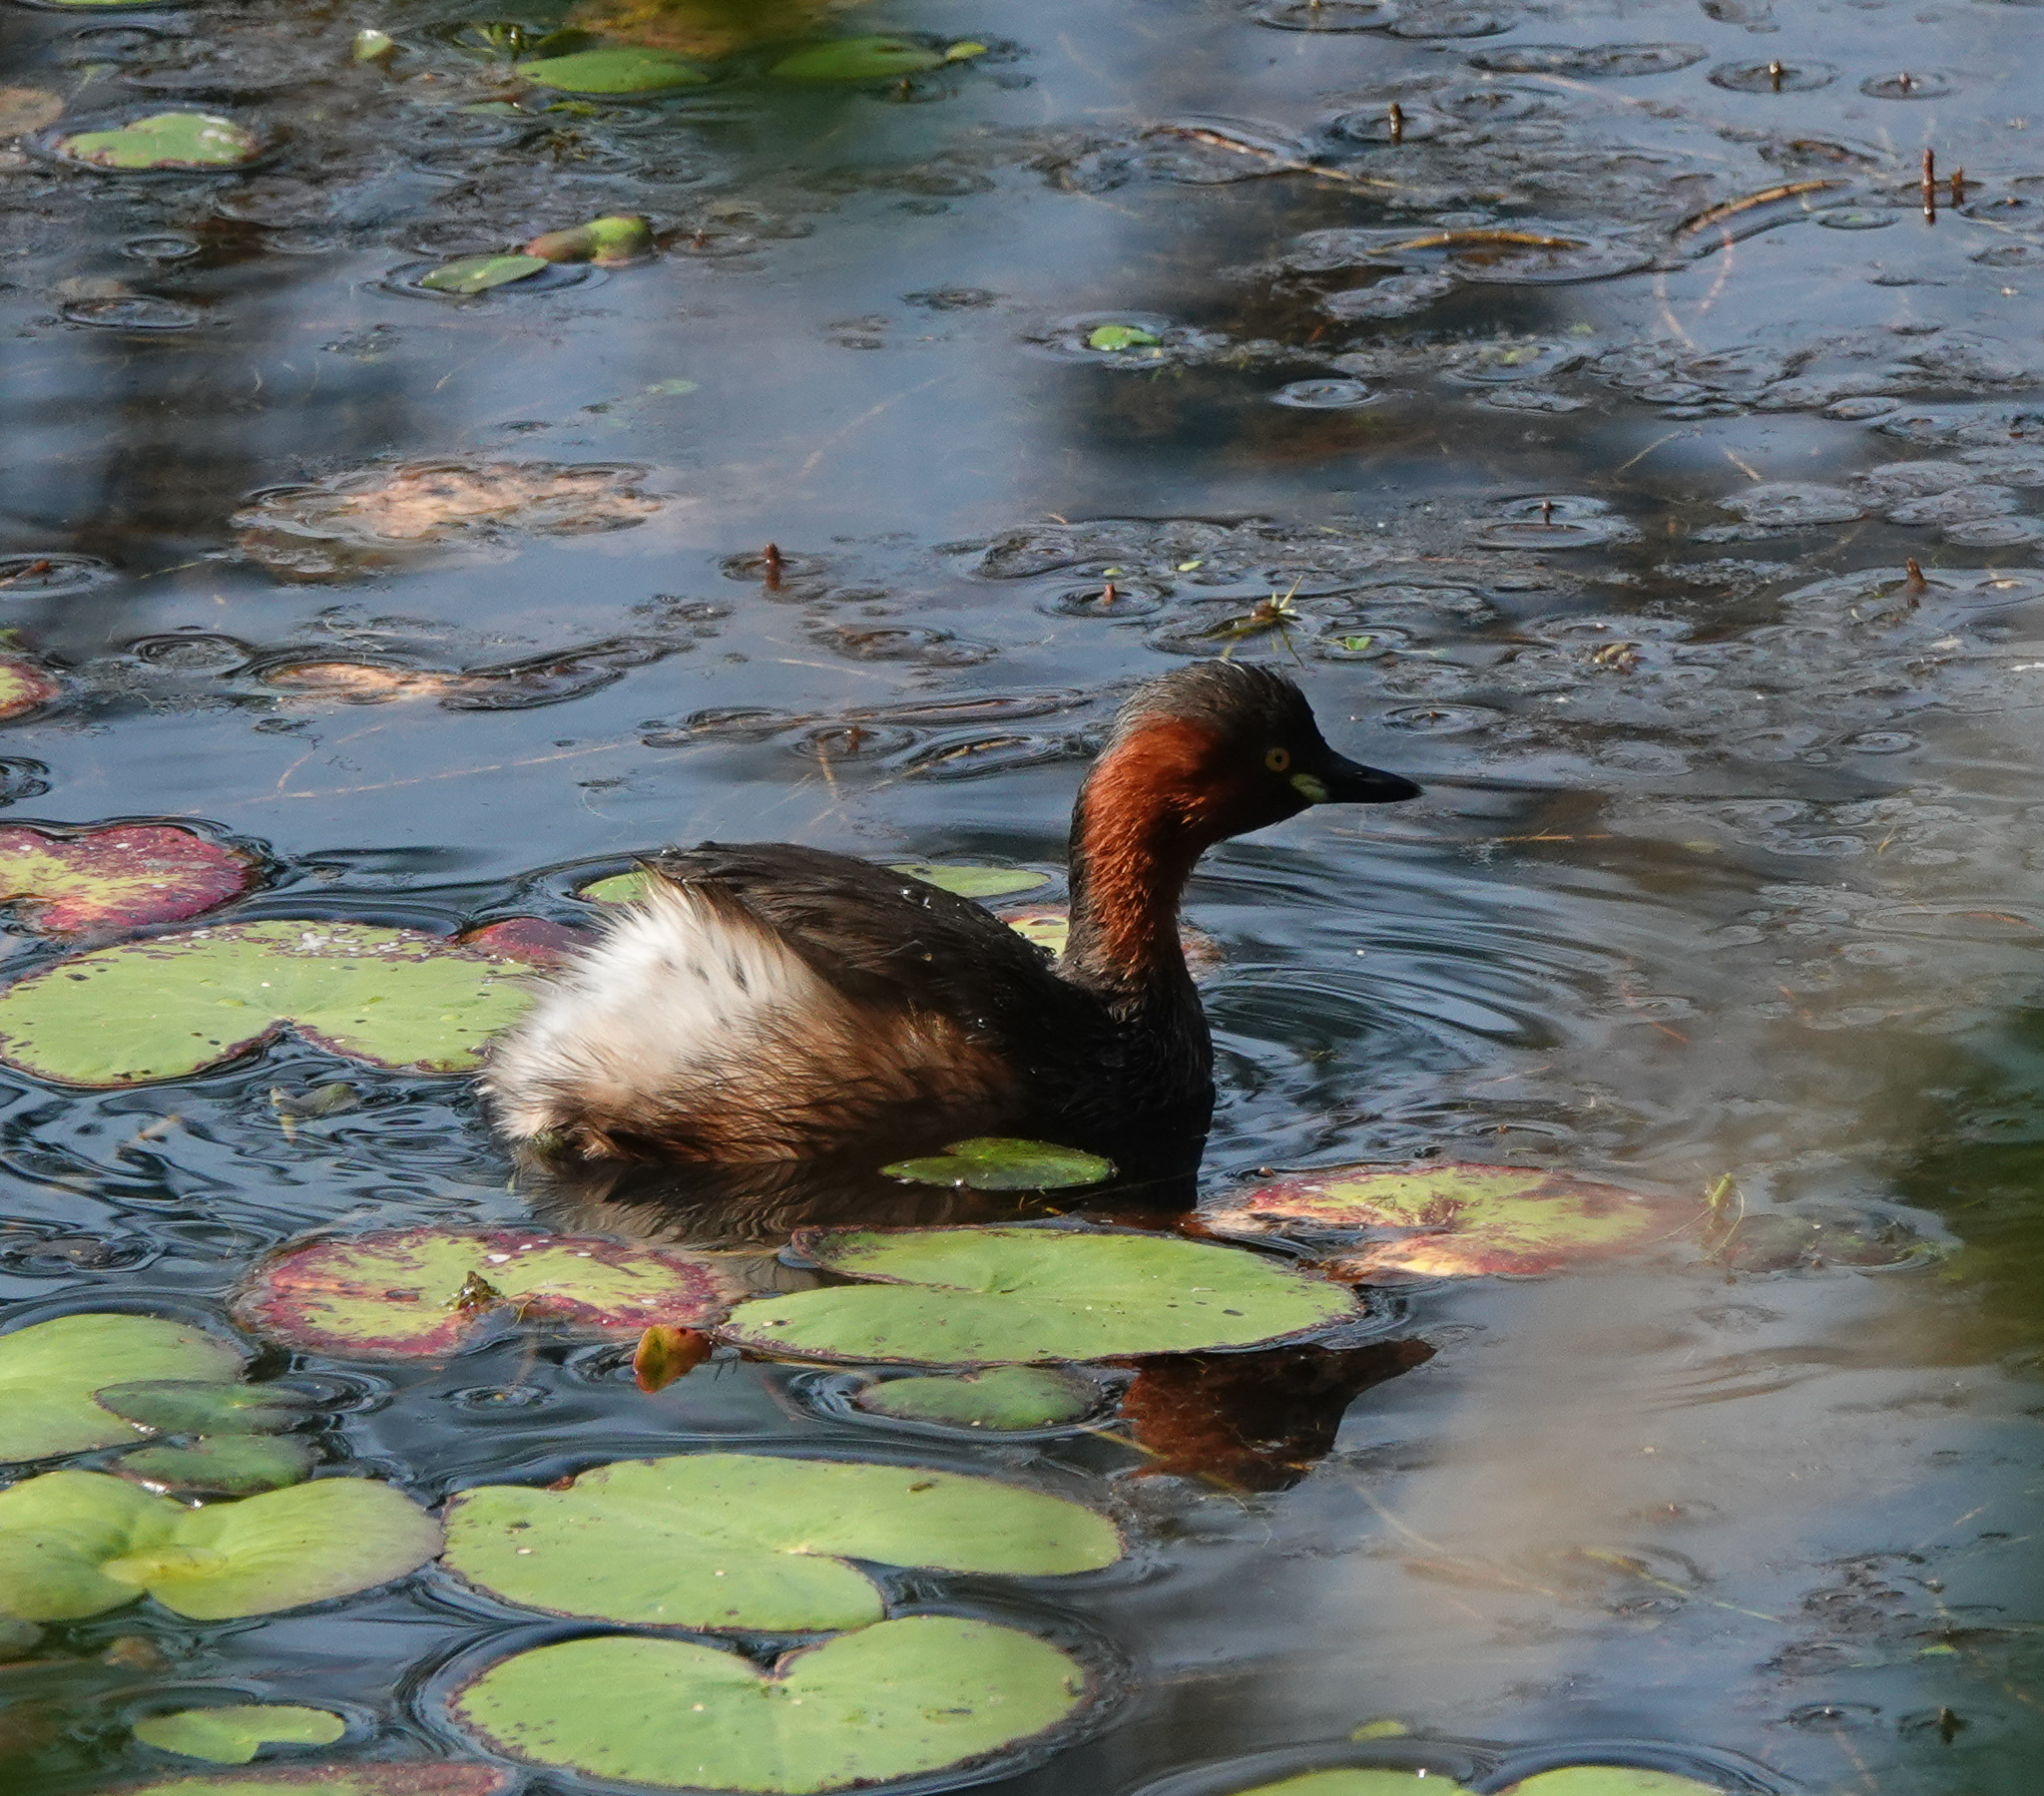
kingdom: Animalia
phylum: Chordata
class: Aves
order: Podicipediformes
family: Podicipedidae
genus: Tachybaptus
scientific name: Tachybaptus ruficollis
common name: Little grebe
